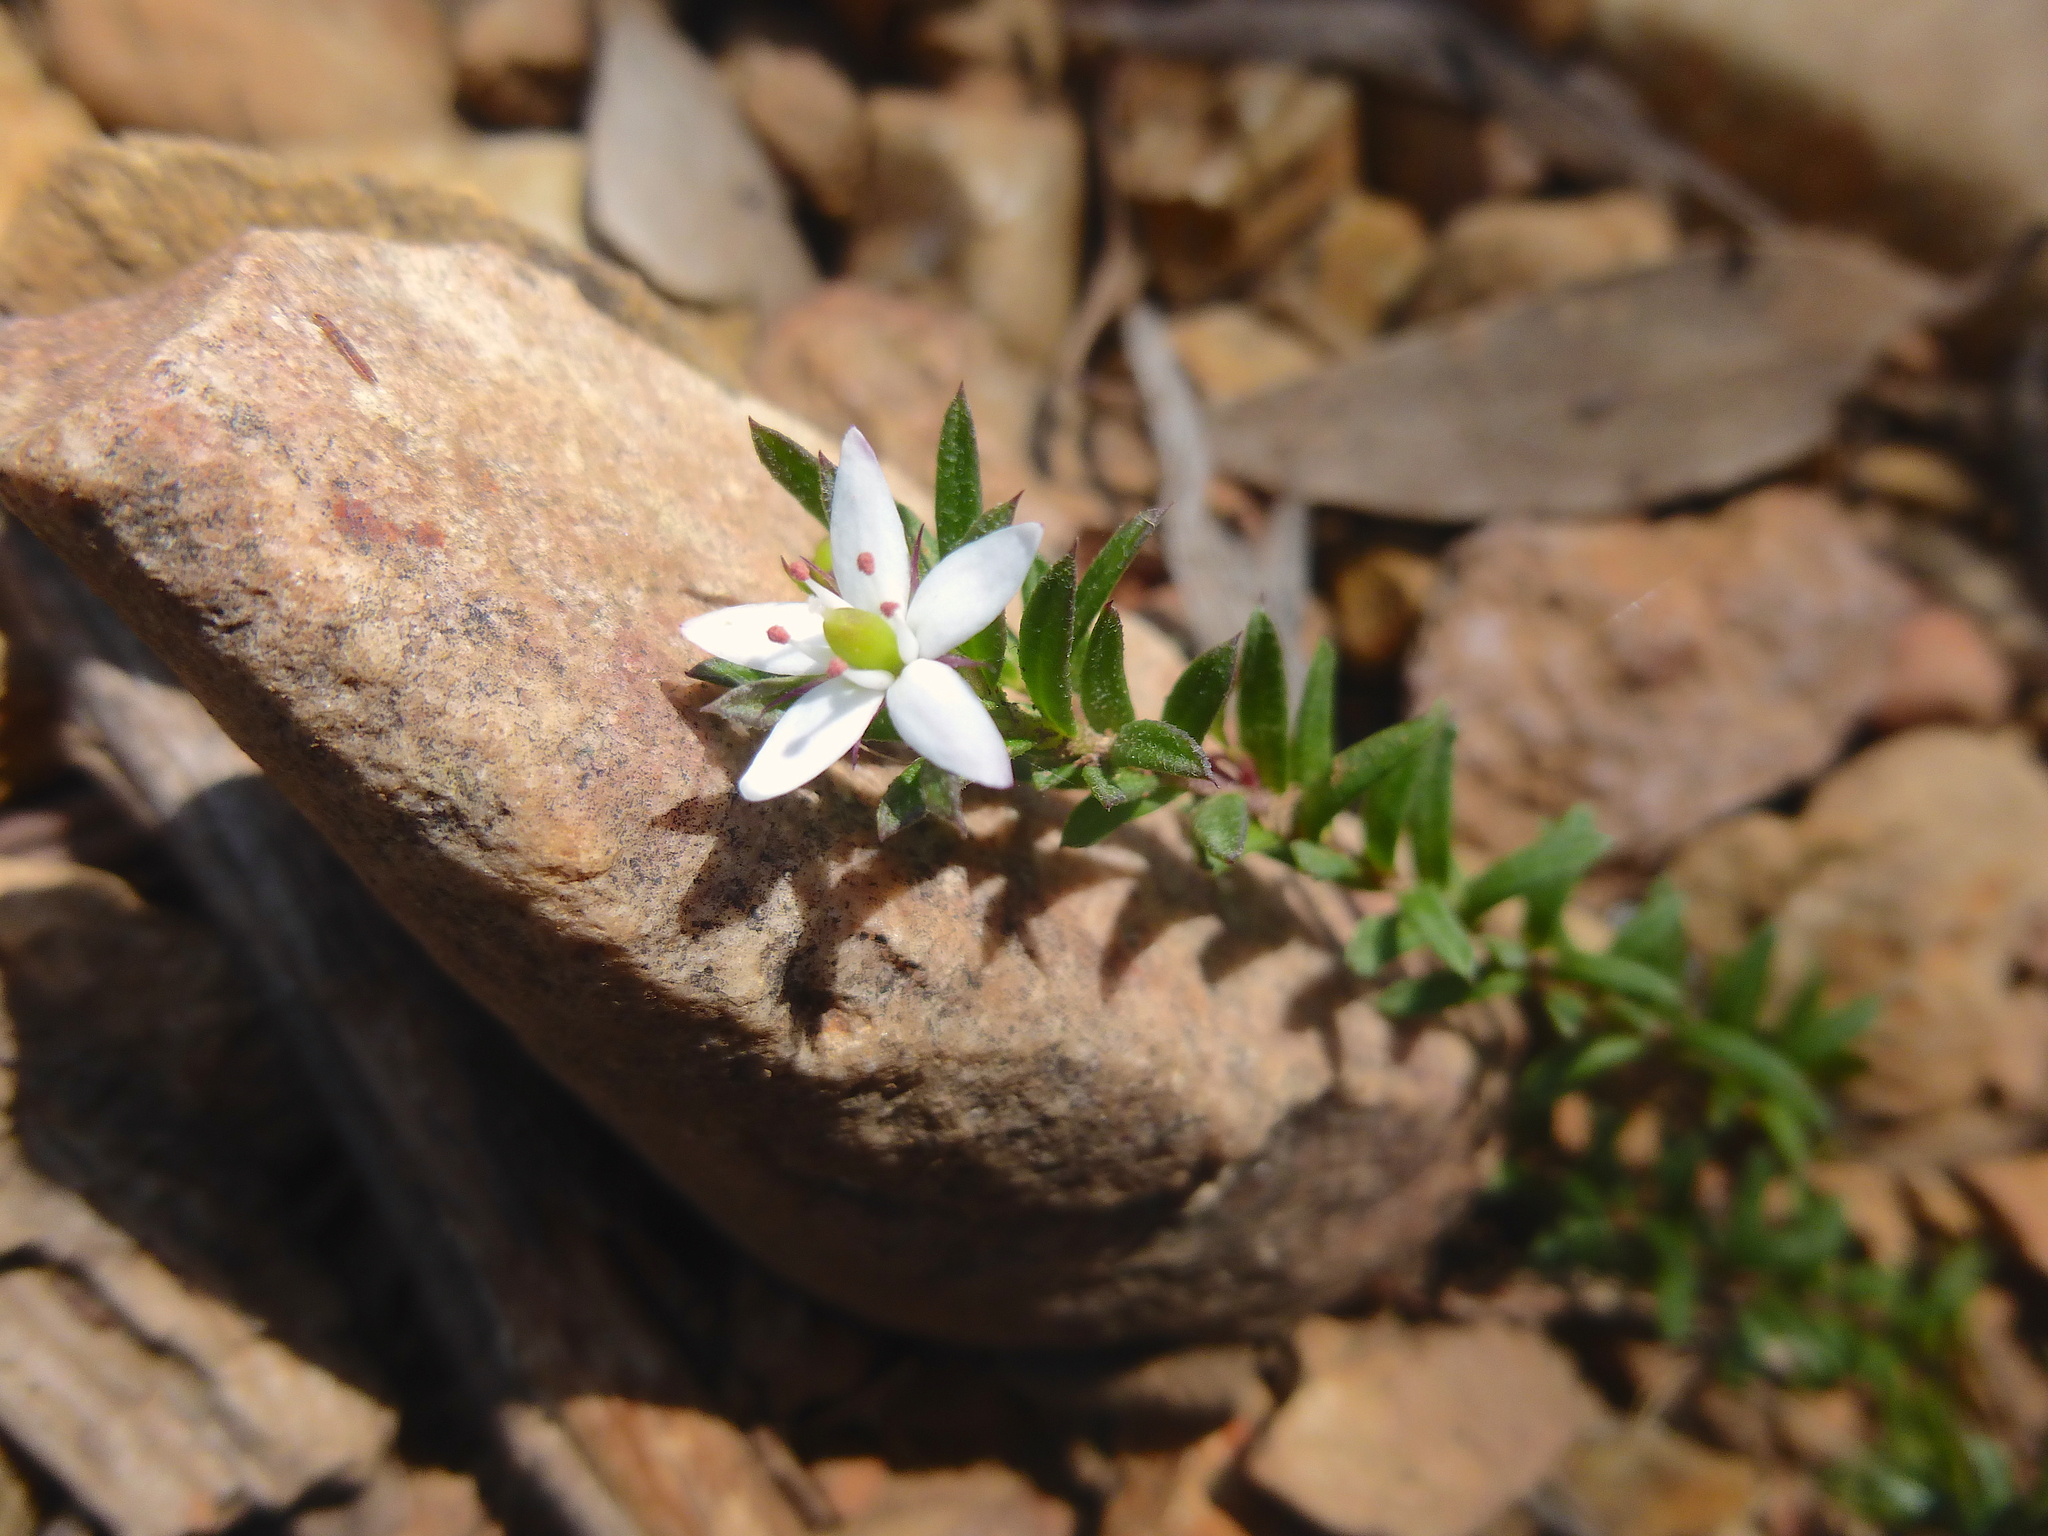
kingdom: Plantae
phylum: Tracheophyta
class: Magnoliopsida
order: Apiales
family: Pittosporaceae
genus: Rhytidosporum
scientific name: Rhytidosporum procumbens
